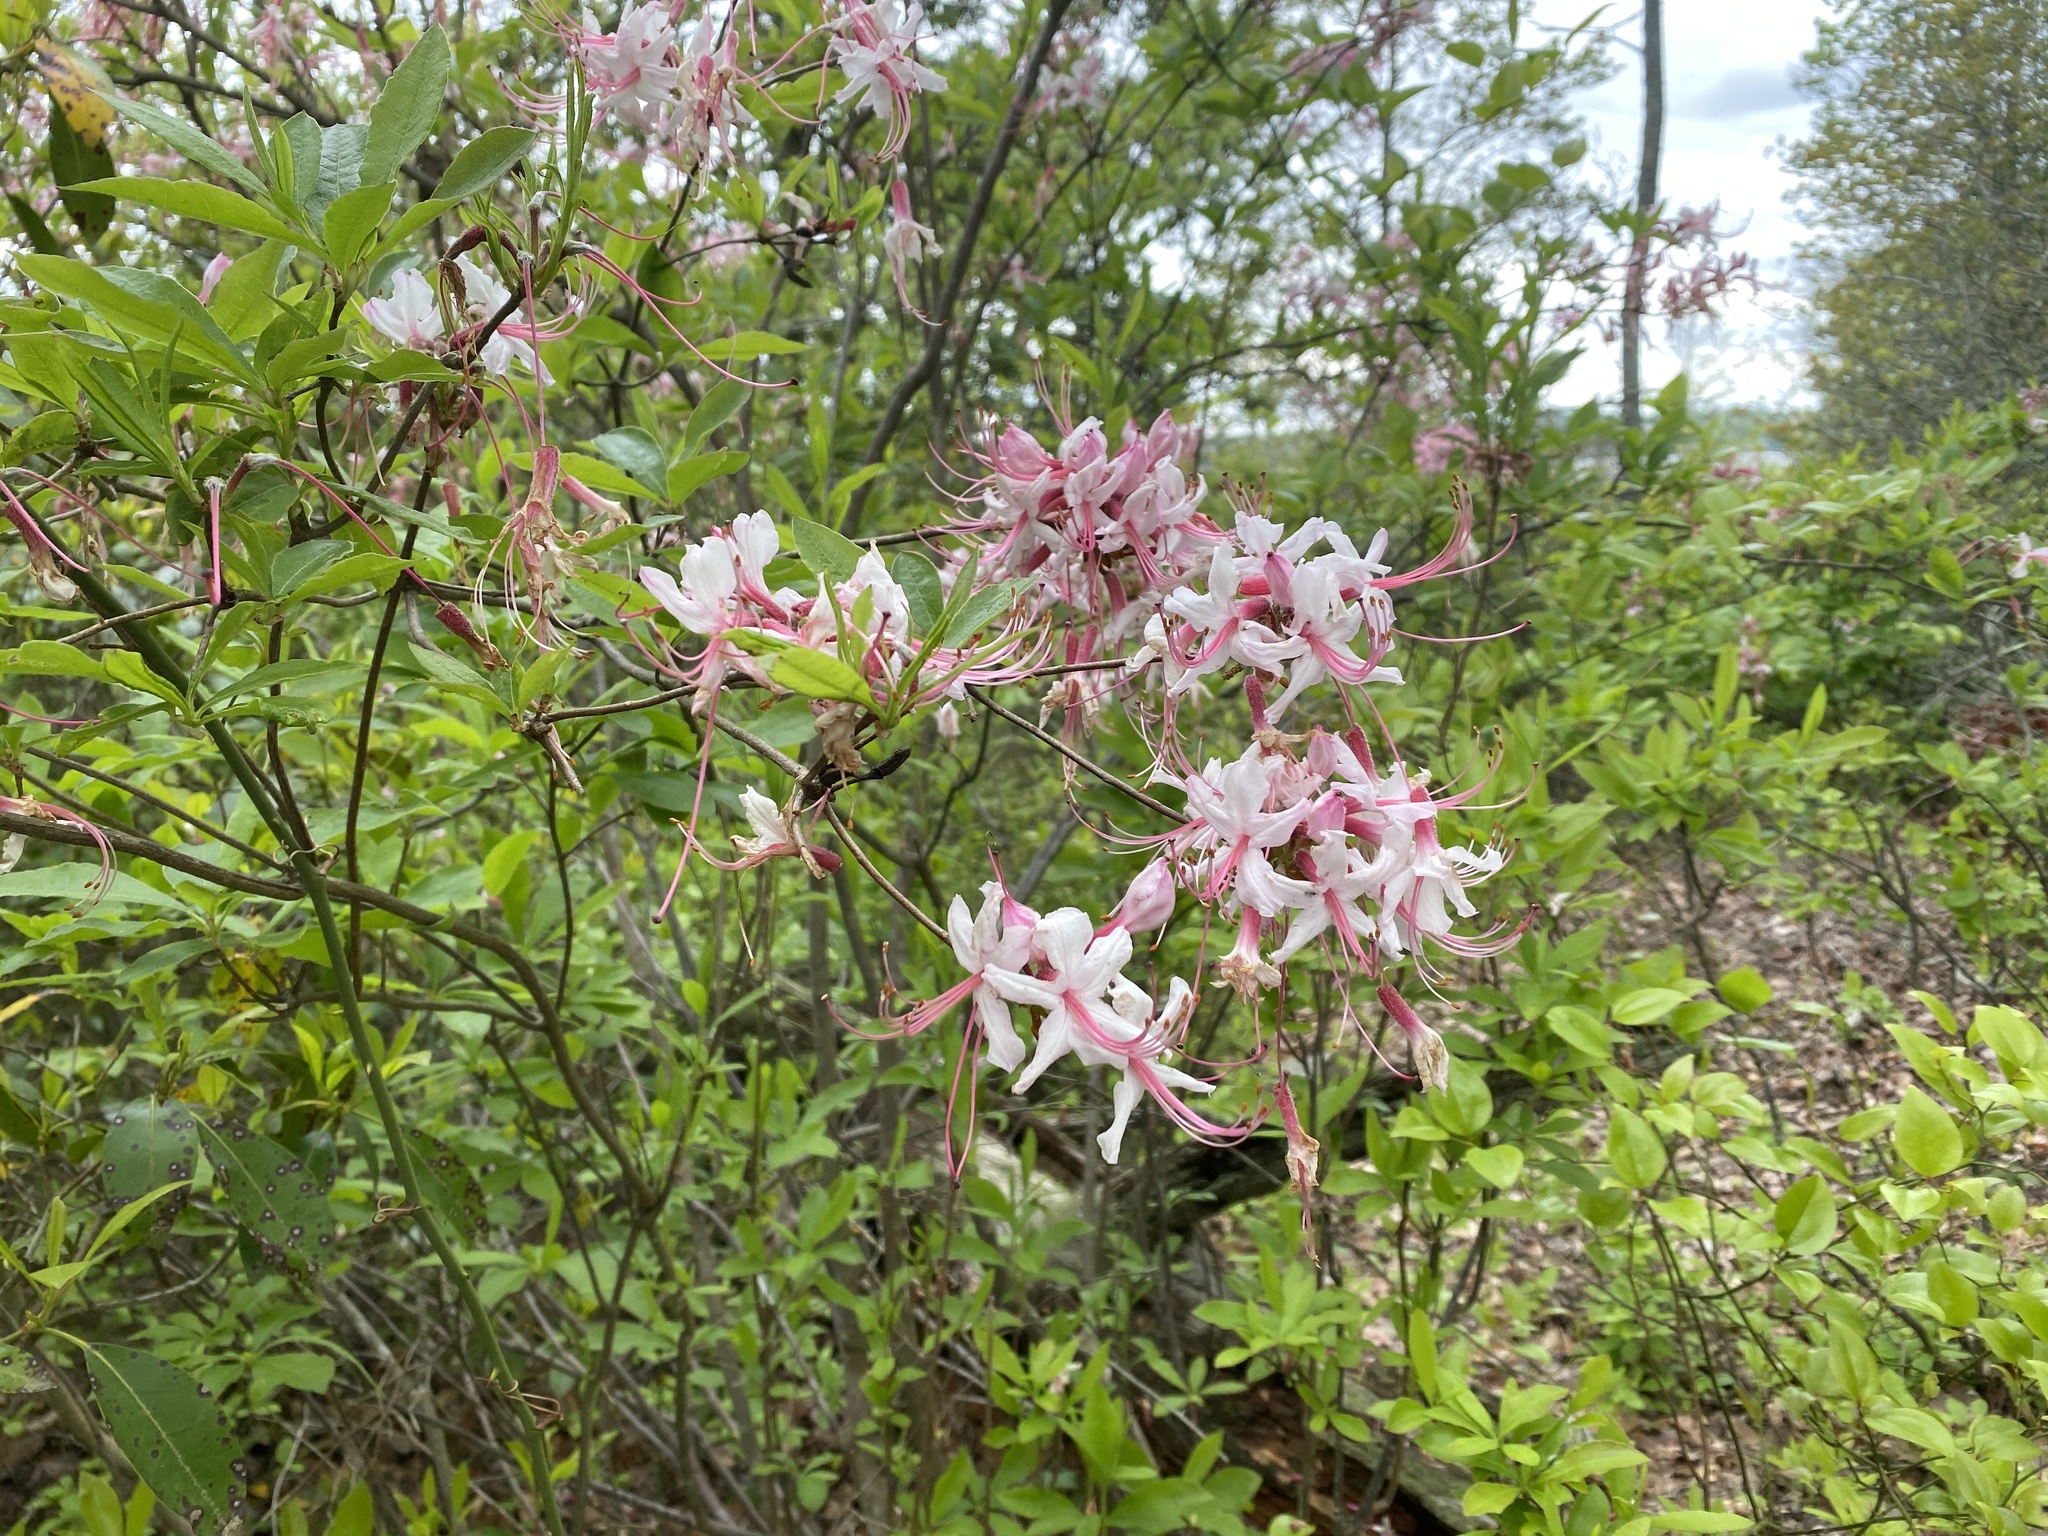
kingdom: Plantae
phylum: Tracheophyta
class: Magnoliopsida
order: Ericales
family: Ericaceae
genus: Rhododendron
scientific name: Rhododendron periclymenoides
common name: Election-pink
